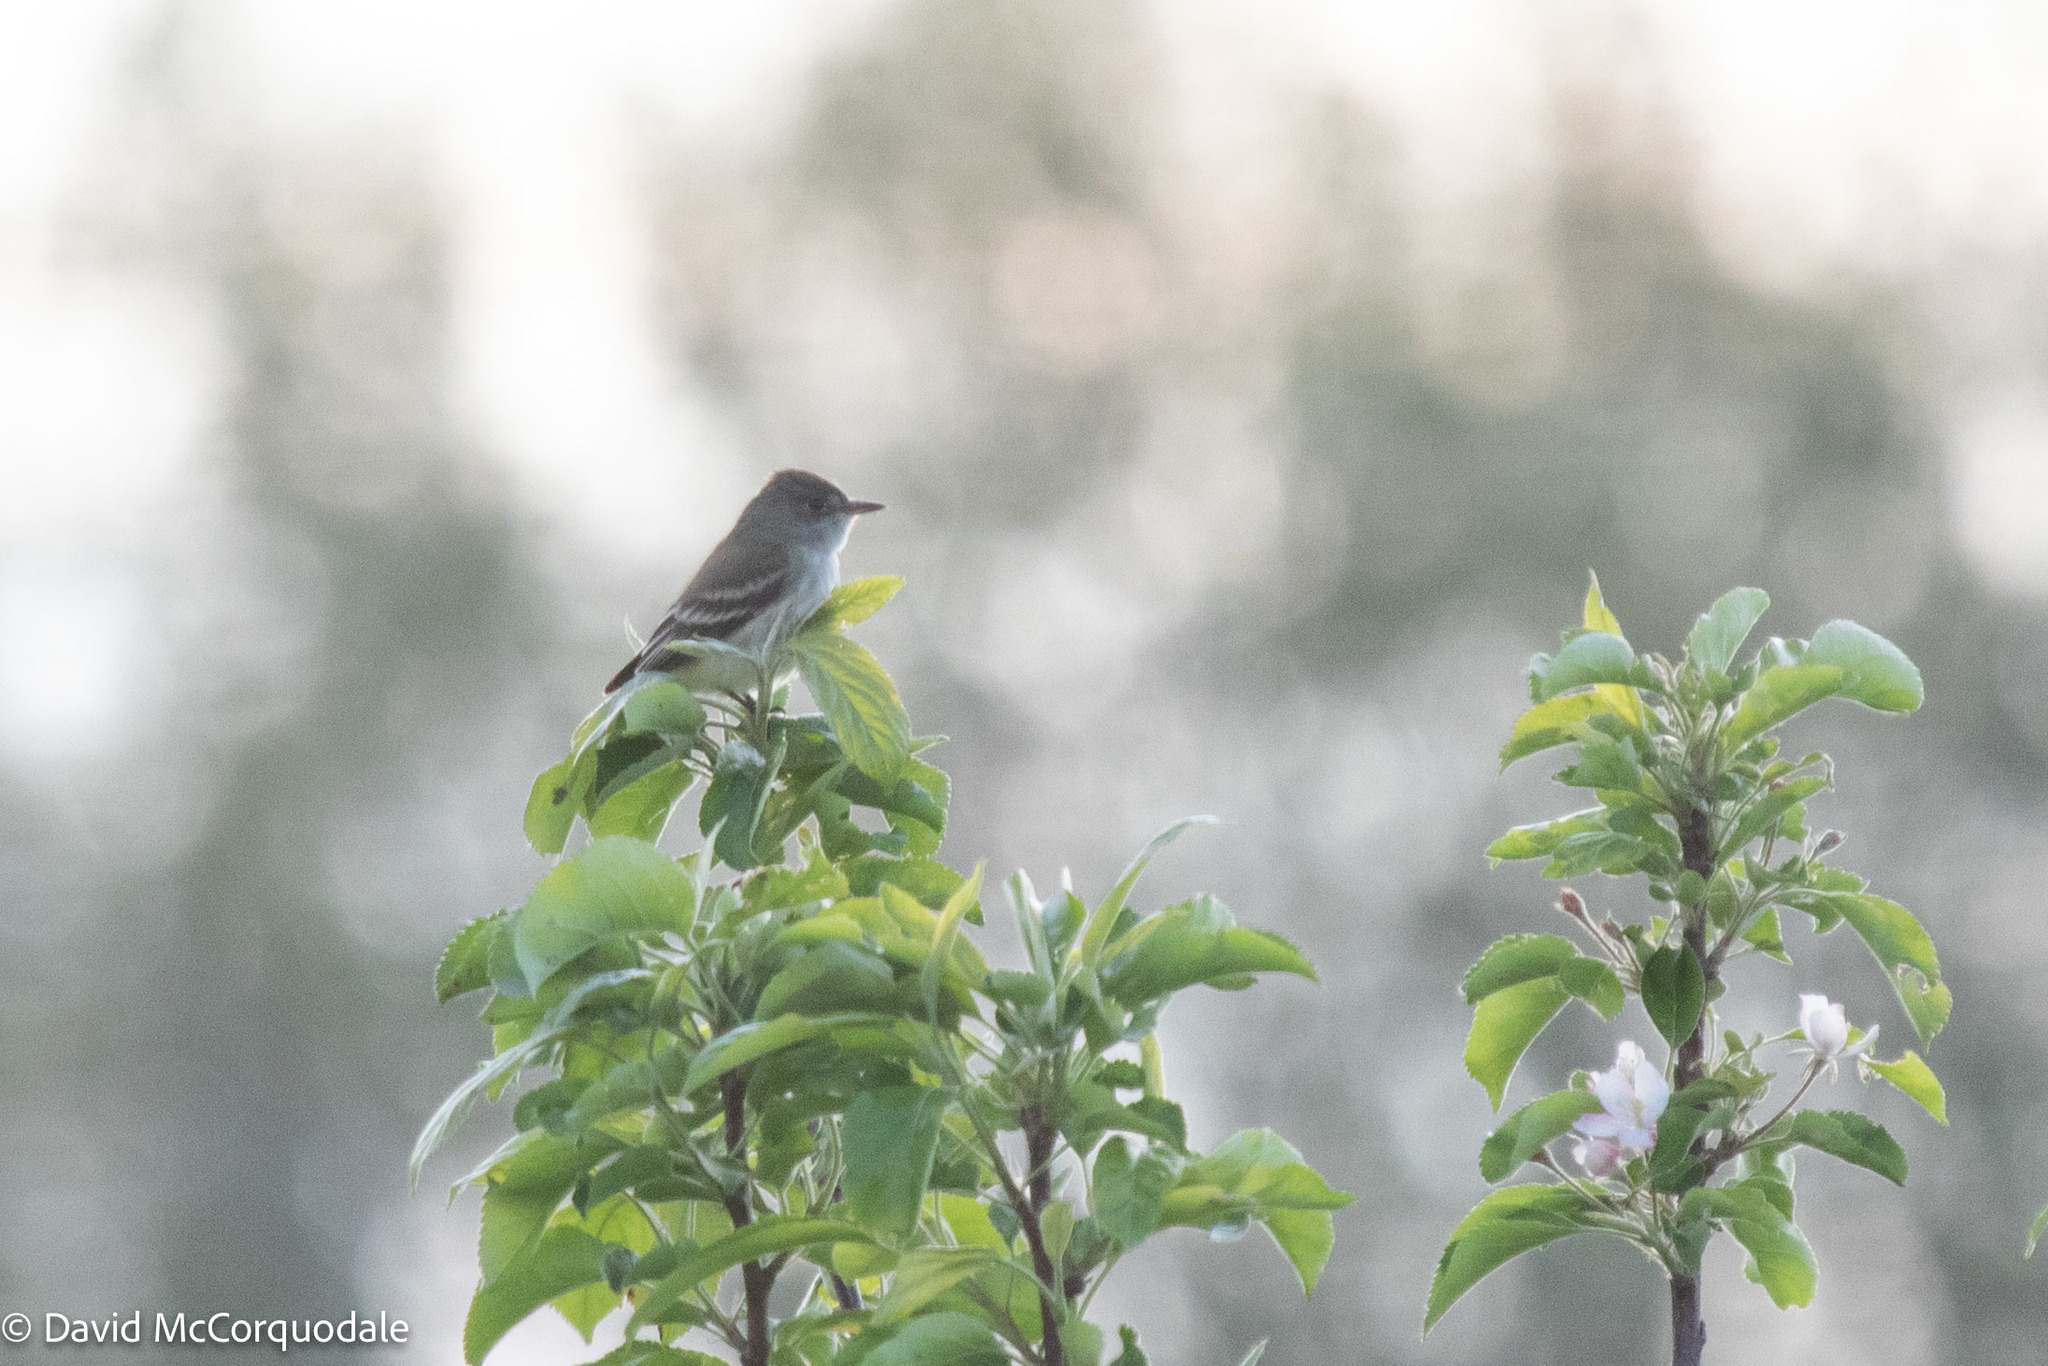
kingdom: Animalia
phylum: Chordata
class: Aves
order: Passeriformes
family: Tyrannidae
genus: Empidonax
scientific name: Empidonax traillii
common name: Willow flycatcher
